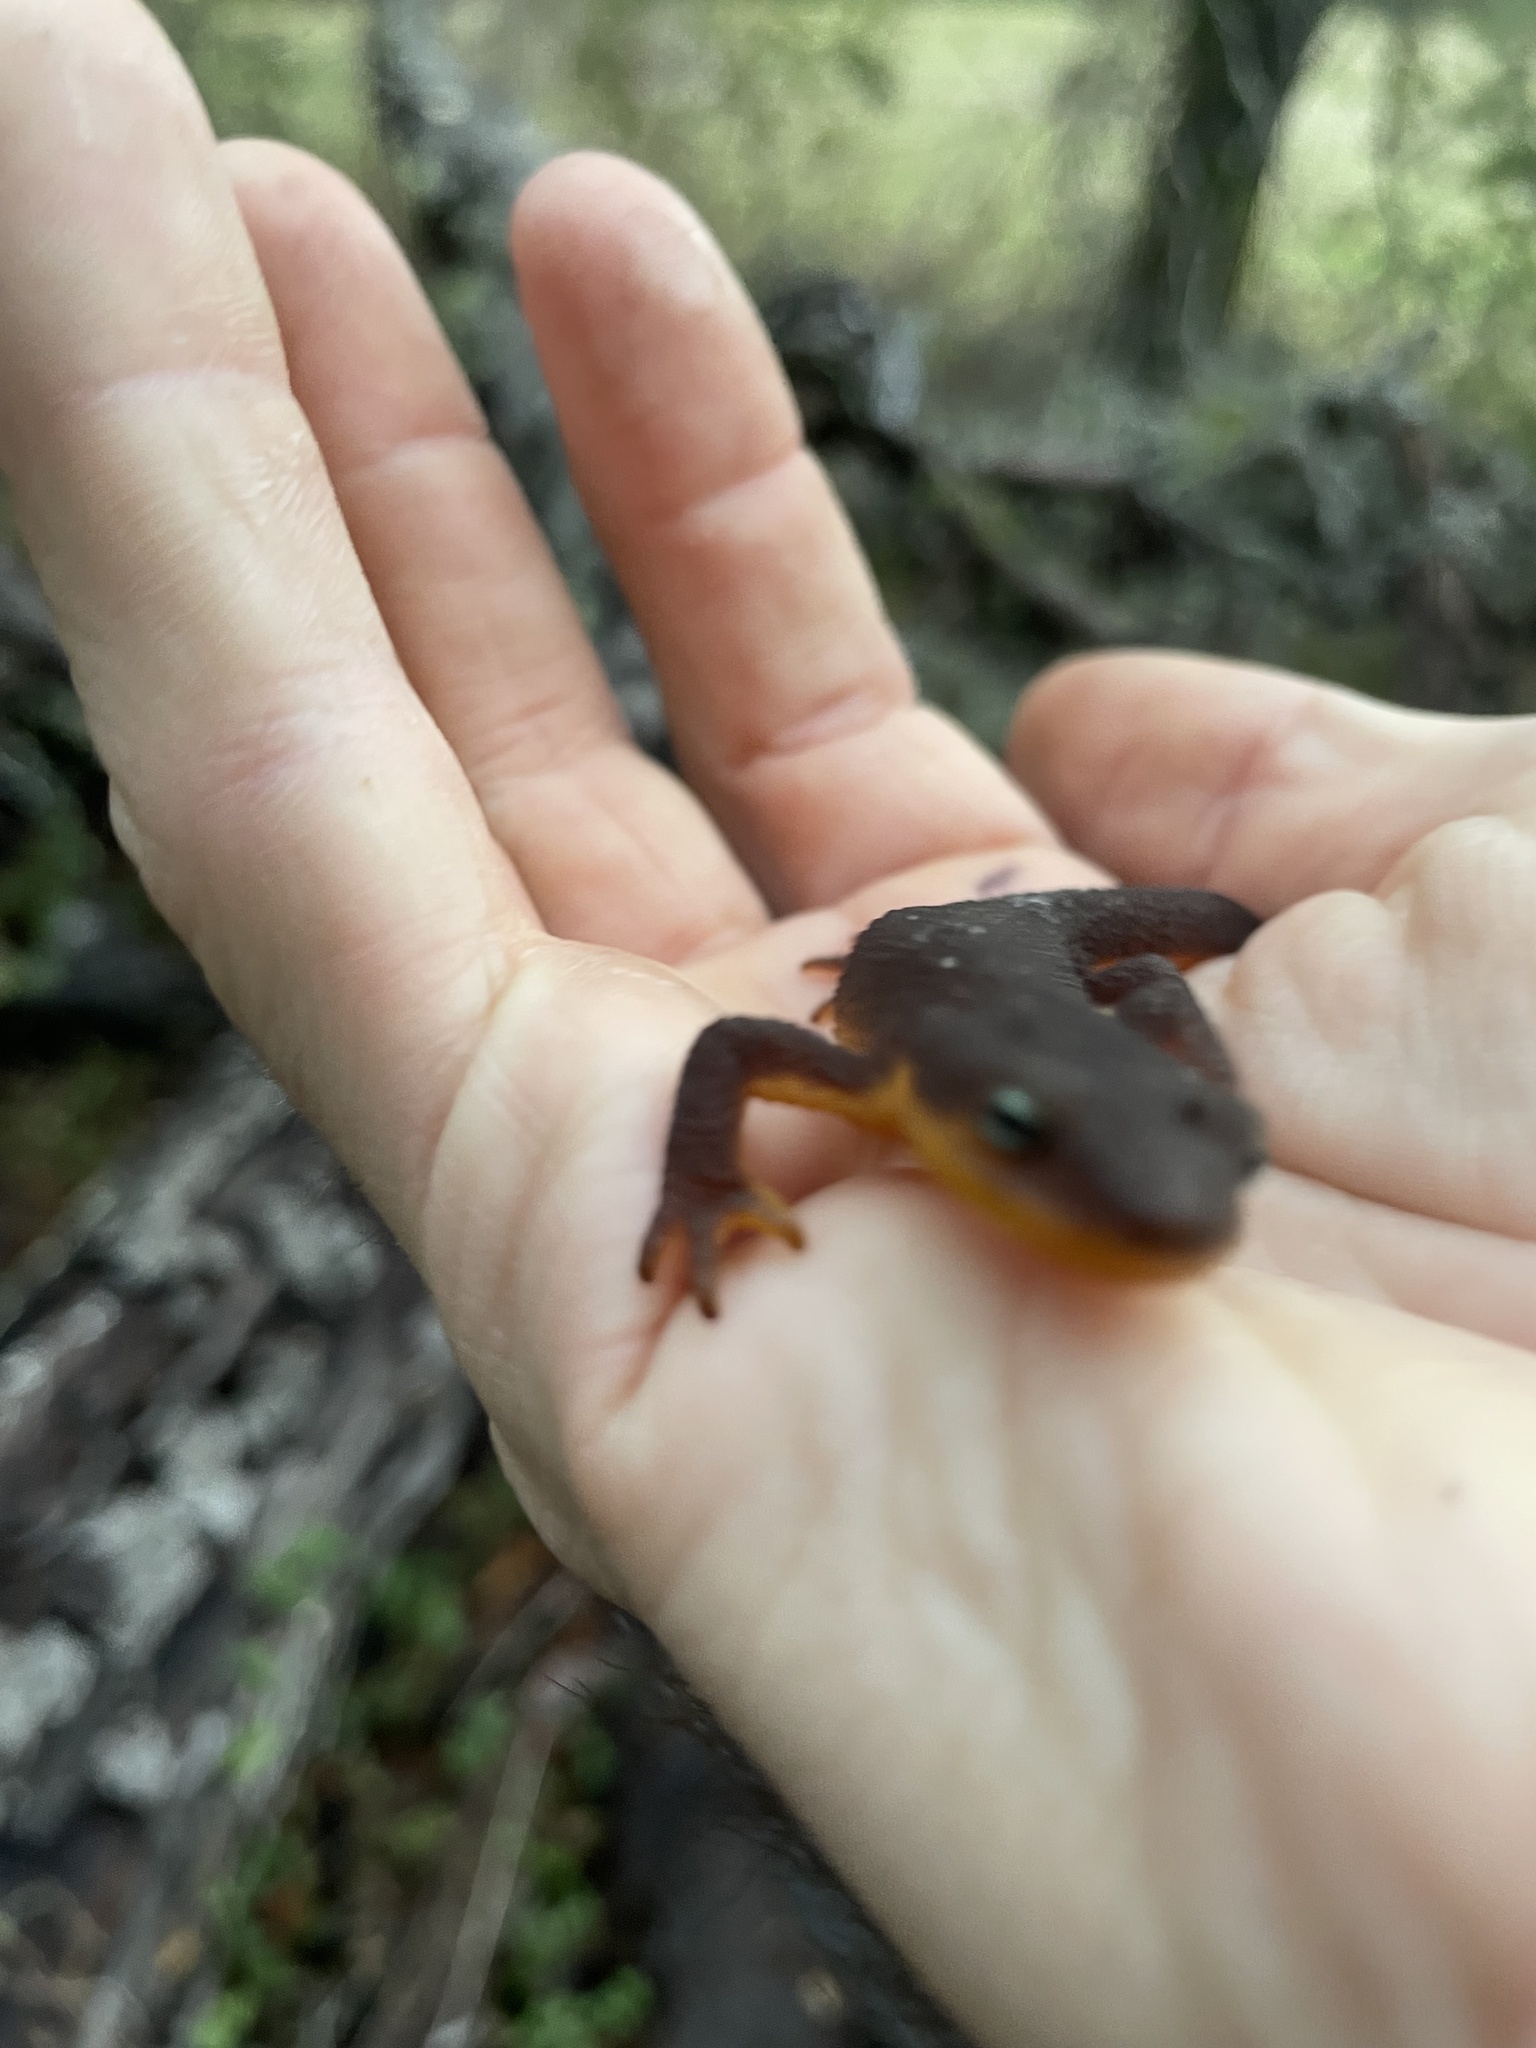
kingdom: Animalia
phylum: Chordata
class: Amphibia
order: Caudata
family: Salamandridae
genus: Taricha
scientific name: Taricha granulosa
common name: Roughskin newt
